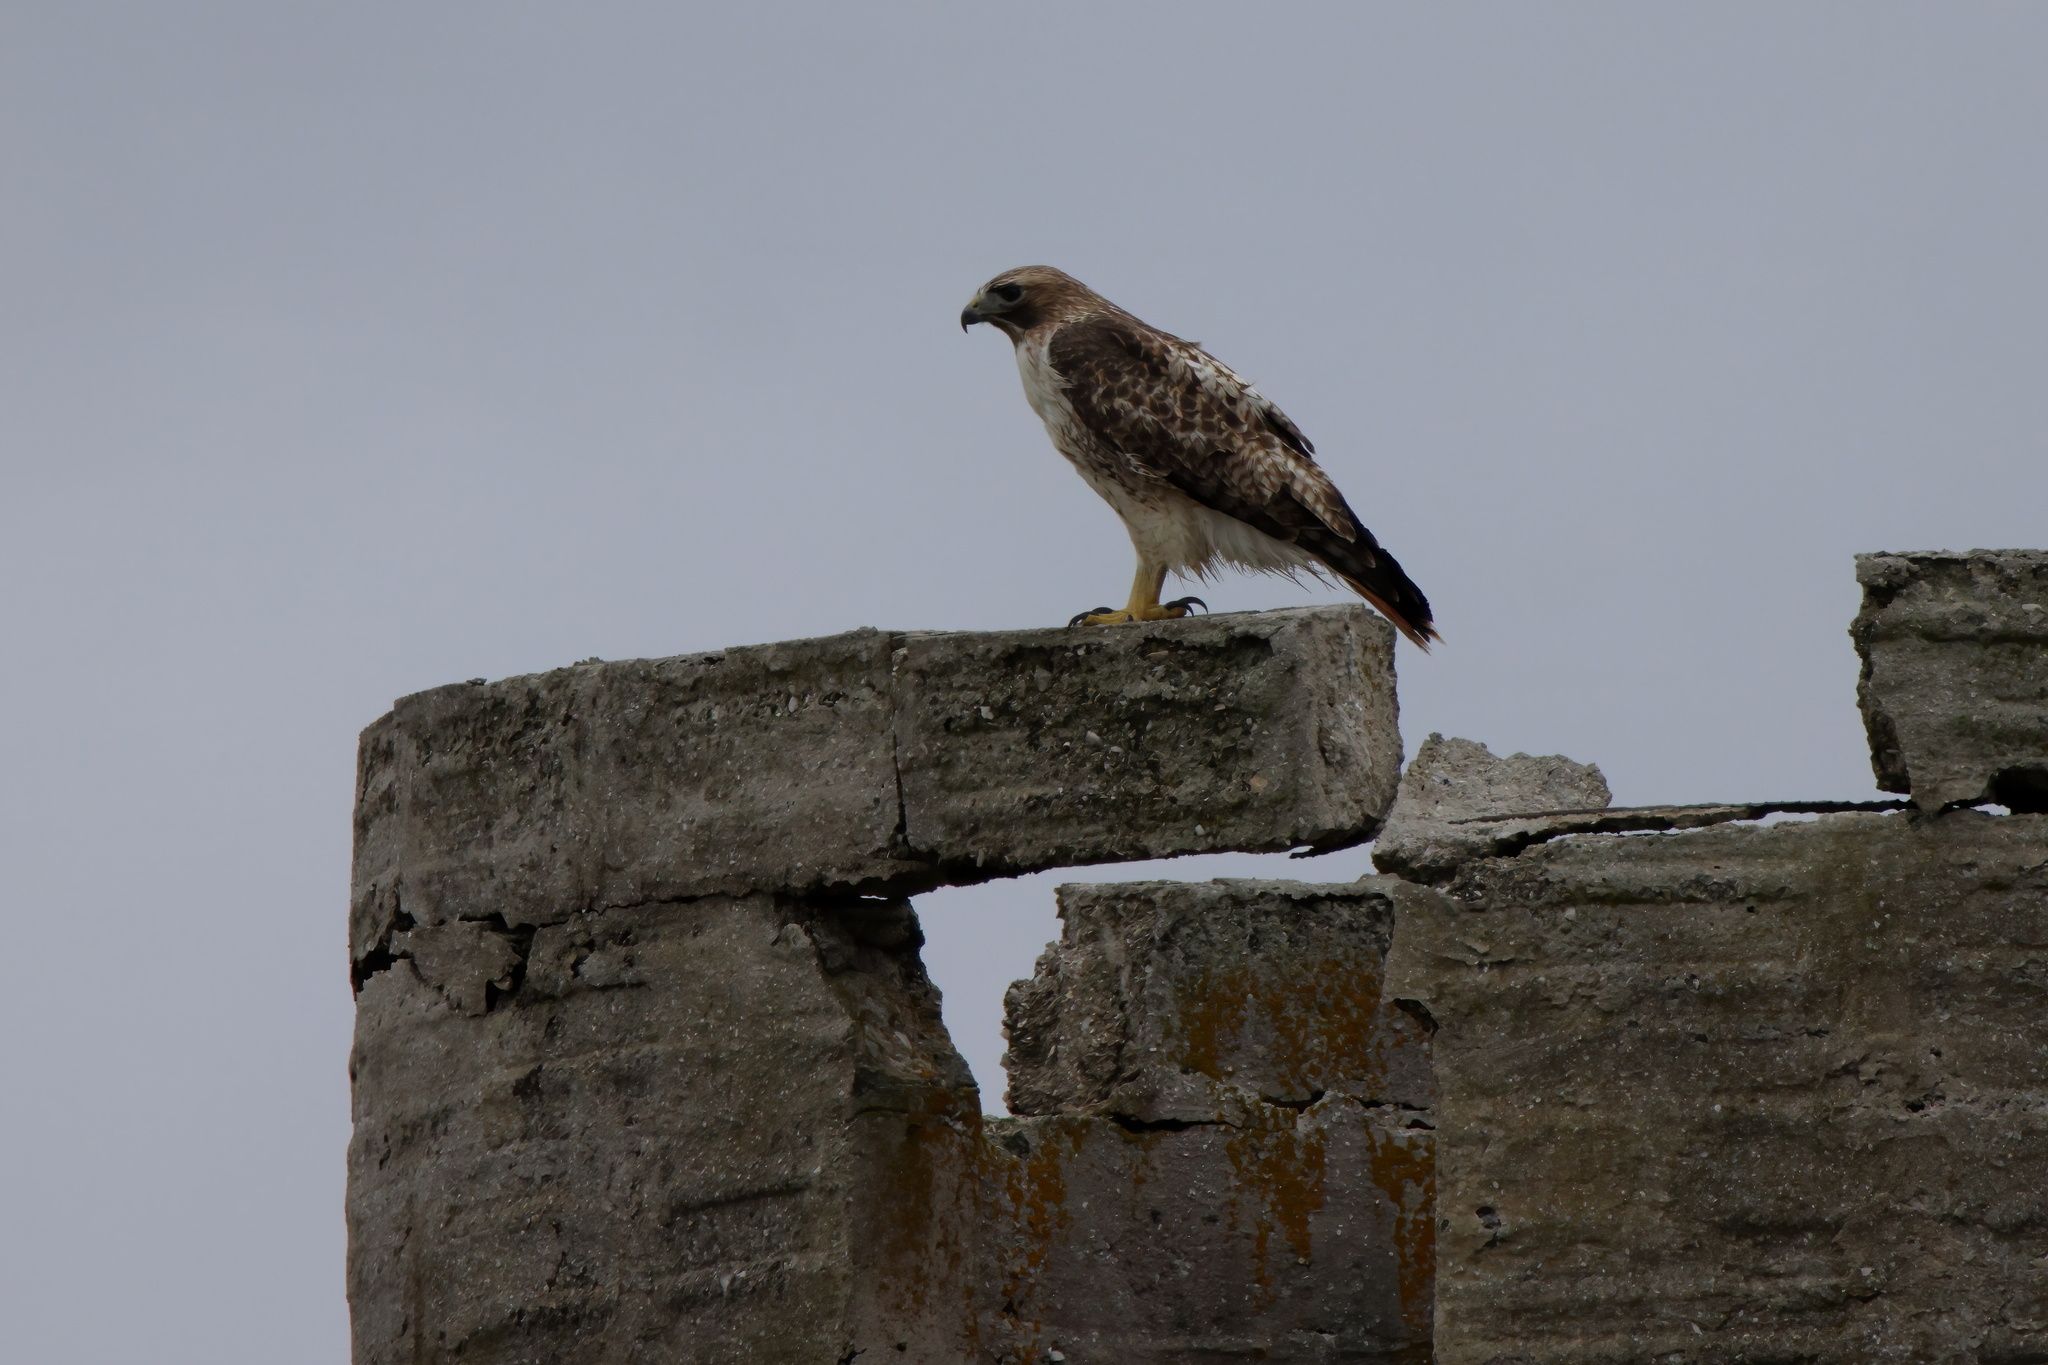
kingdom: Animalia
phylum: Chordata
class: Aves
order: Accipitriformes
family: Accipitridae
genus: Buteo
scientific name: Buteo jamaicensis
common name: Red-tailed hawk
